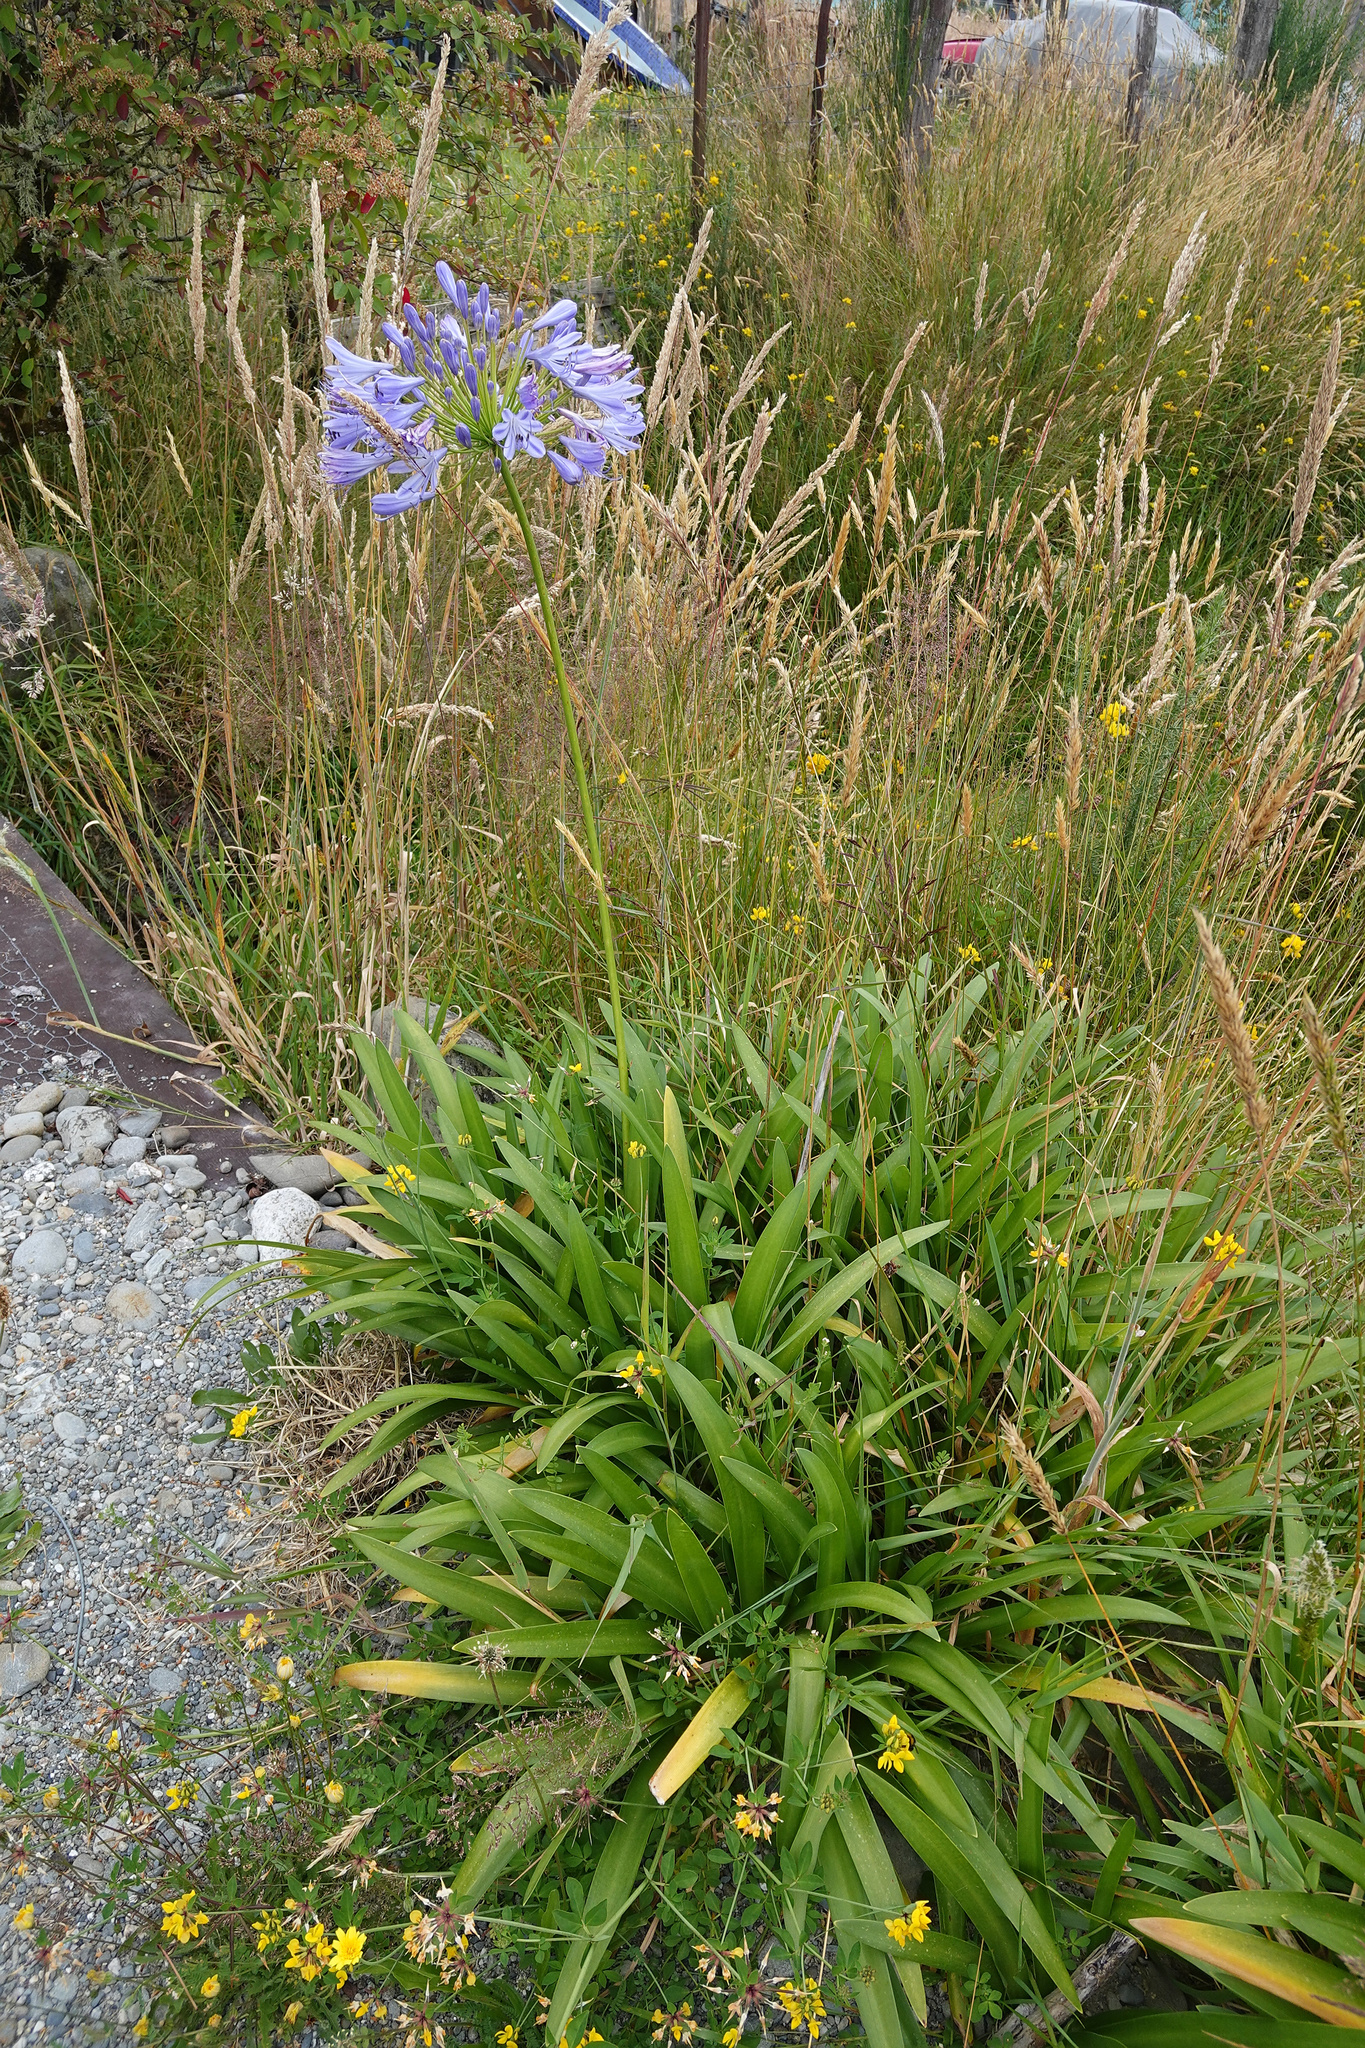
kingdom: Plantae
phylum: Tracheophyta
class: Liliopsida
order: Asparagales
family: Amaryllidaceae
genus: Agapanthus
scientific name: Agapanthus praecox
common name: African-lily
